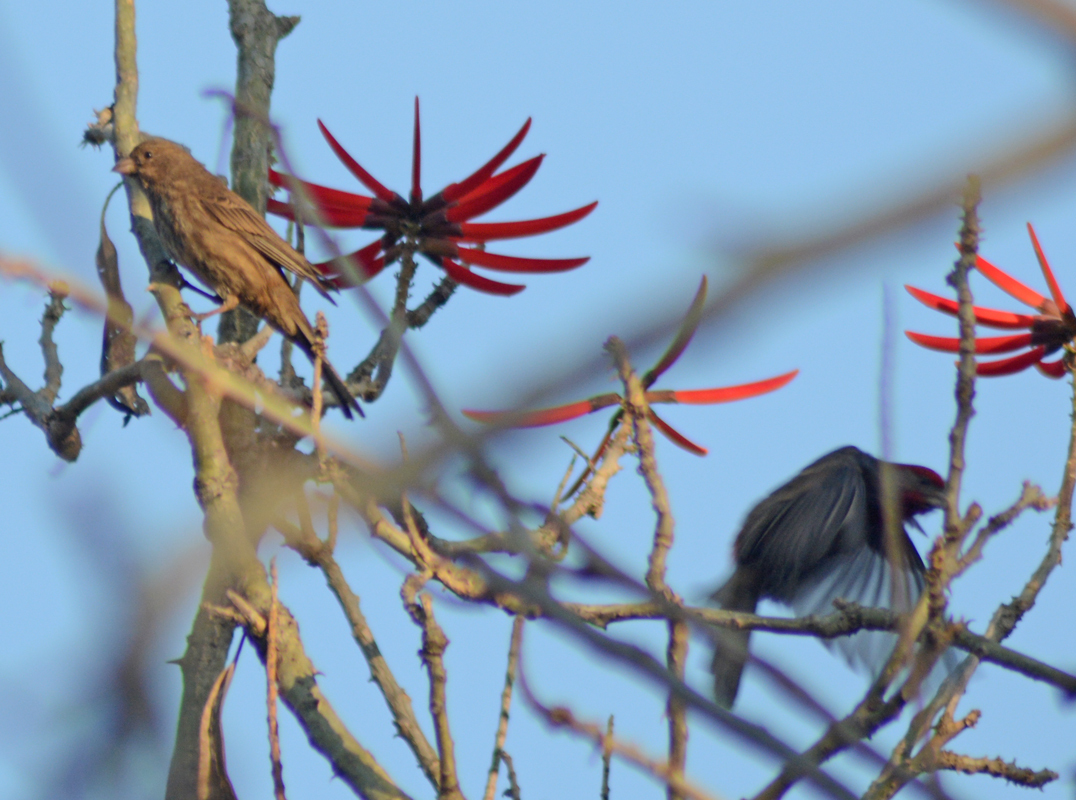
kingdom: Animalia
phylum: Chordata
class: Aves
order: Passeriformes
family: Fringillidae
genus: Haemorhous
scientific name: Haemorhous mexicanus
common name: House finch
